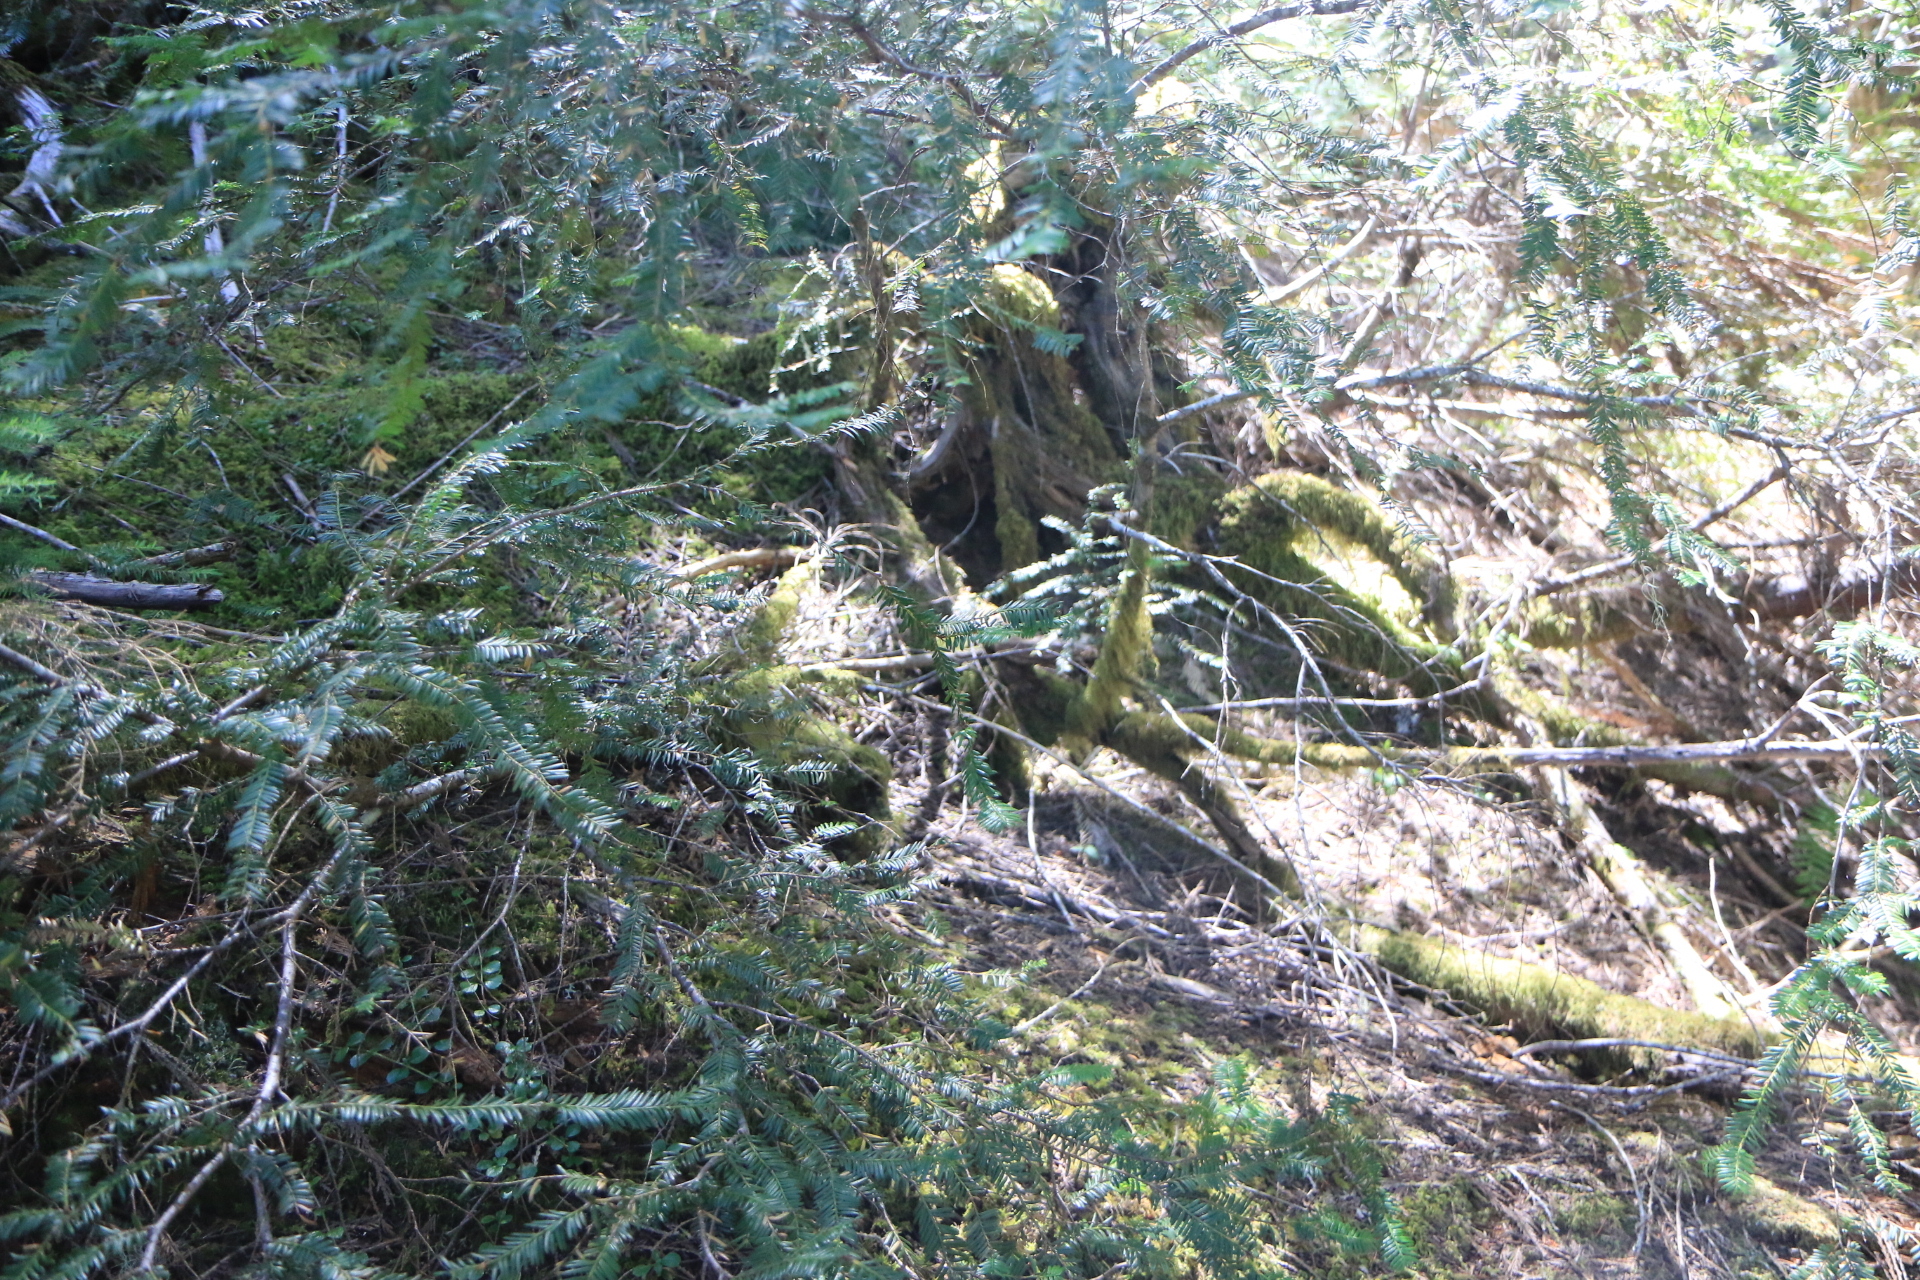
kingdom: Plantae
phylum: Tracheophyta
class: Pinopsida
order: Pinales
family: Taxaceae
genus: Taxus
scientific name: Taxus brevifolia
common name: Pacific yew
